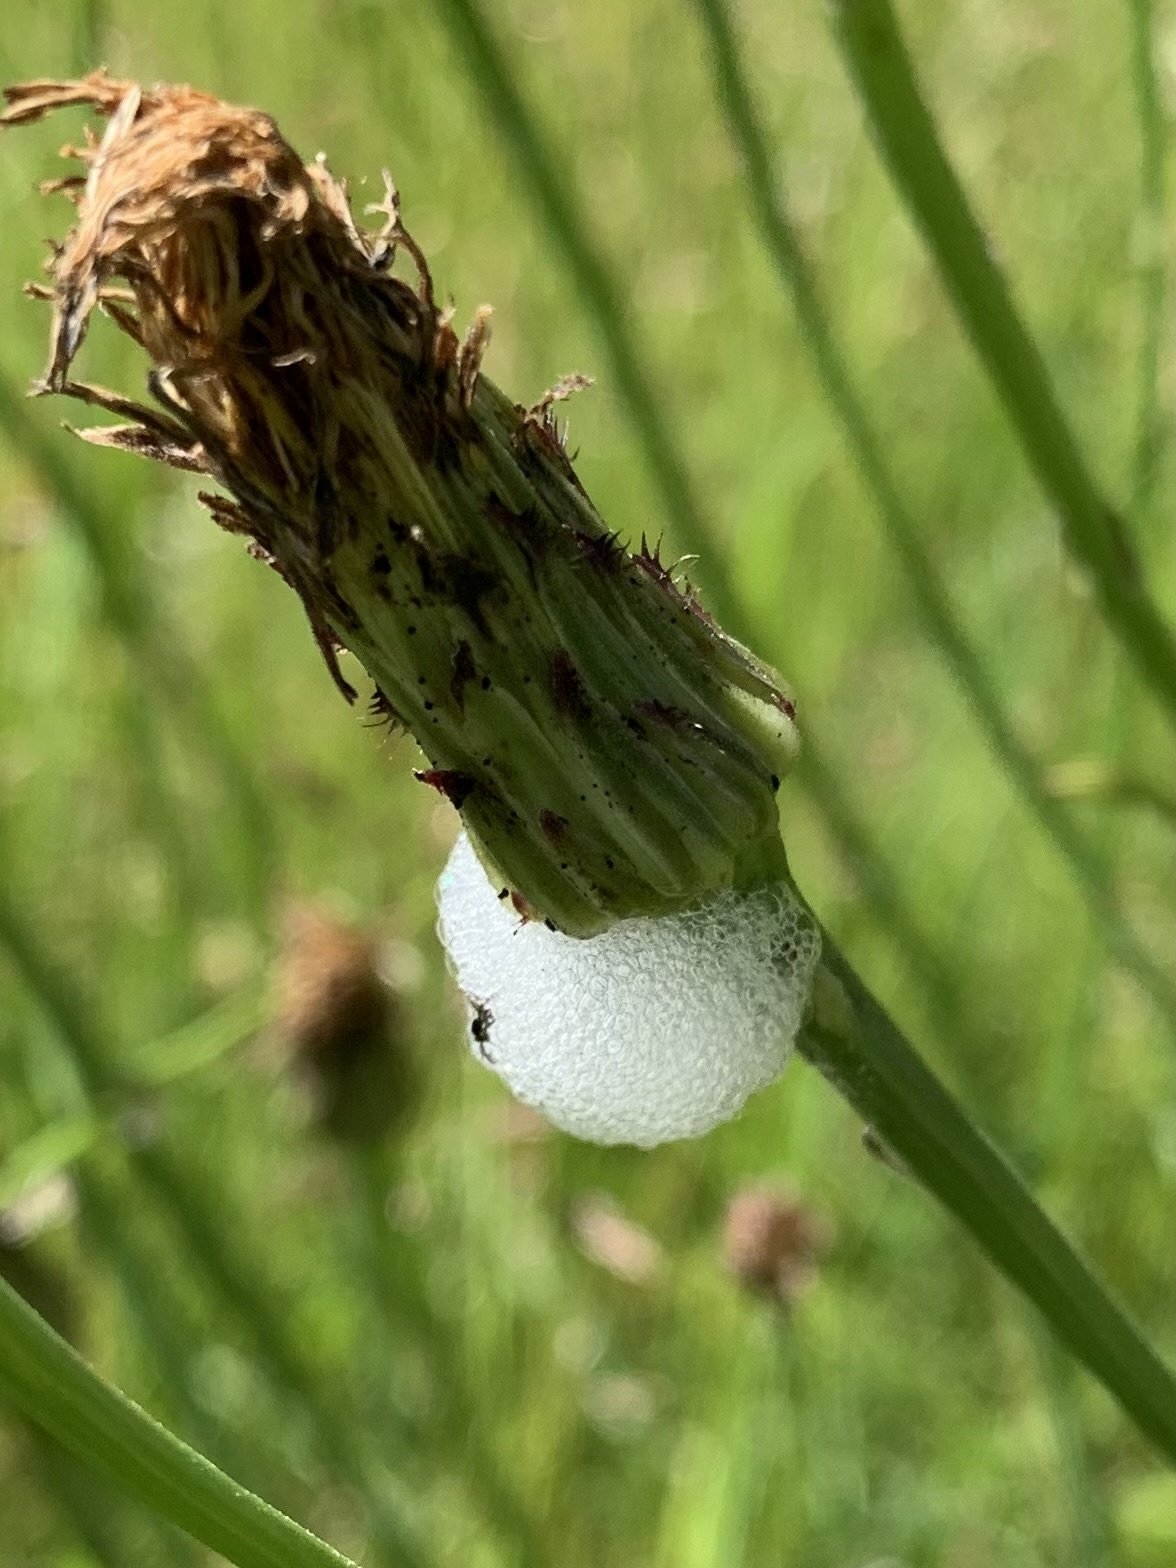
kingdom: Animalia
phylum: Arthropoda
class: Insecta
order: Hemiptera
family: Aphrophoridae
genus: Philaenus
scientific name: Philaenus spumarius
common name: Meadow spittlebug
